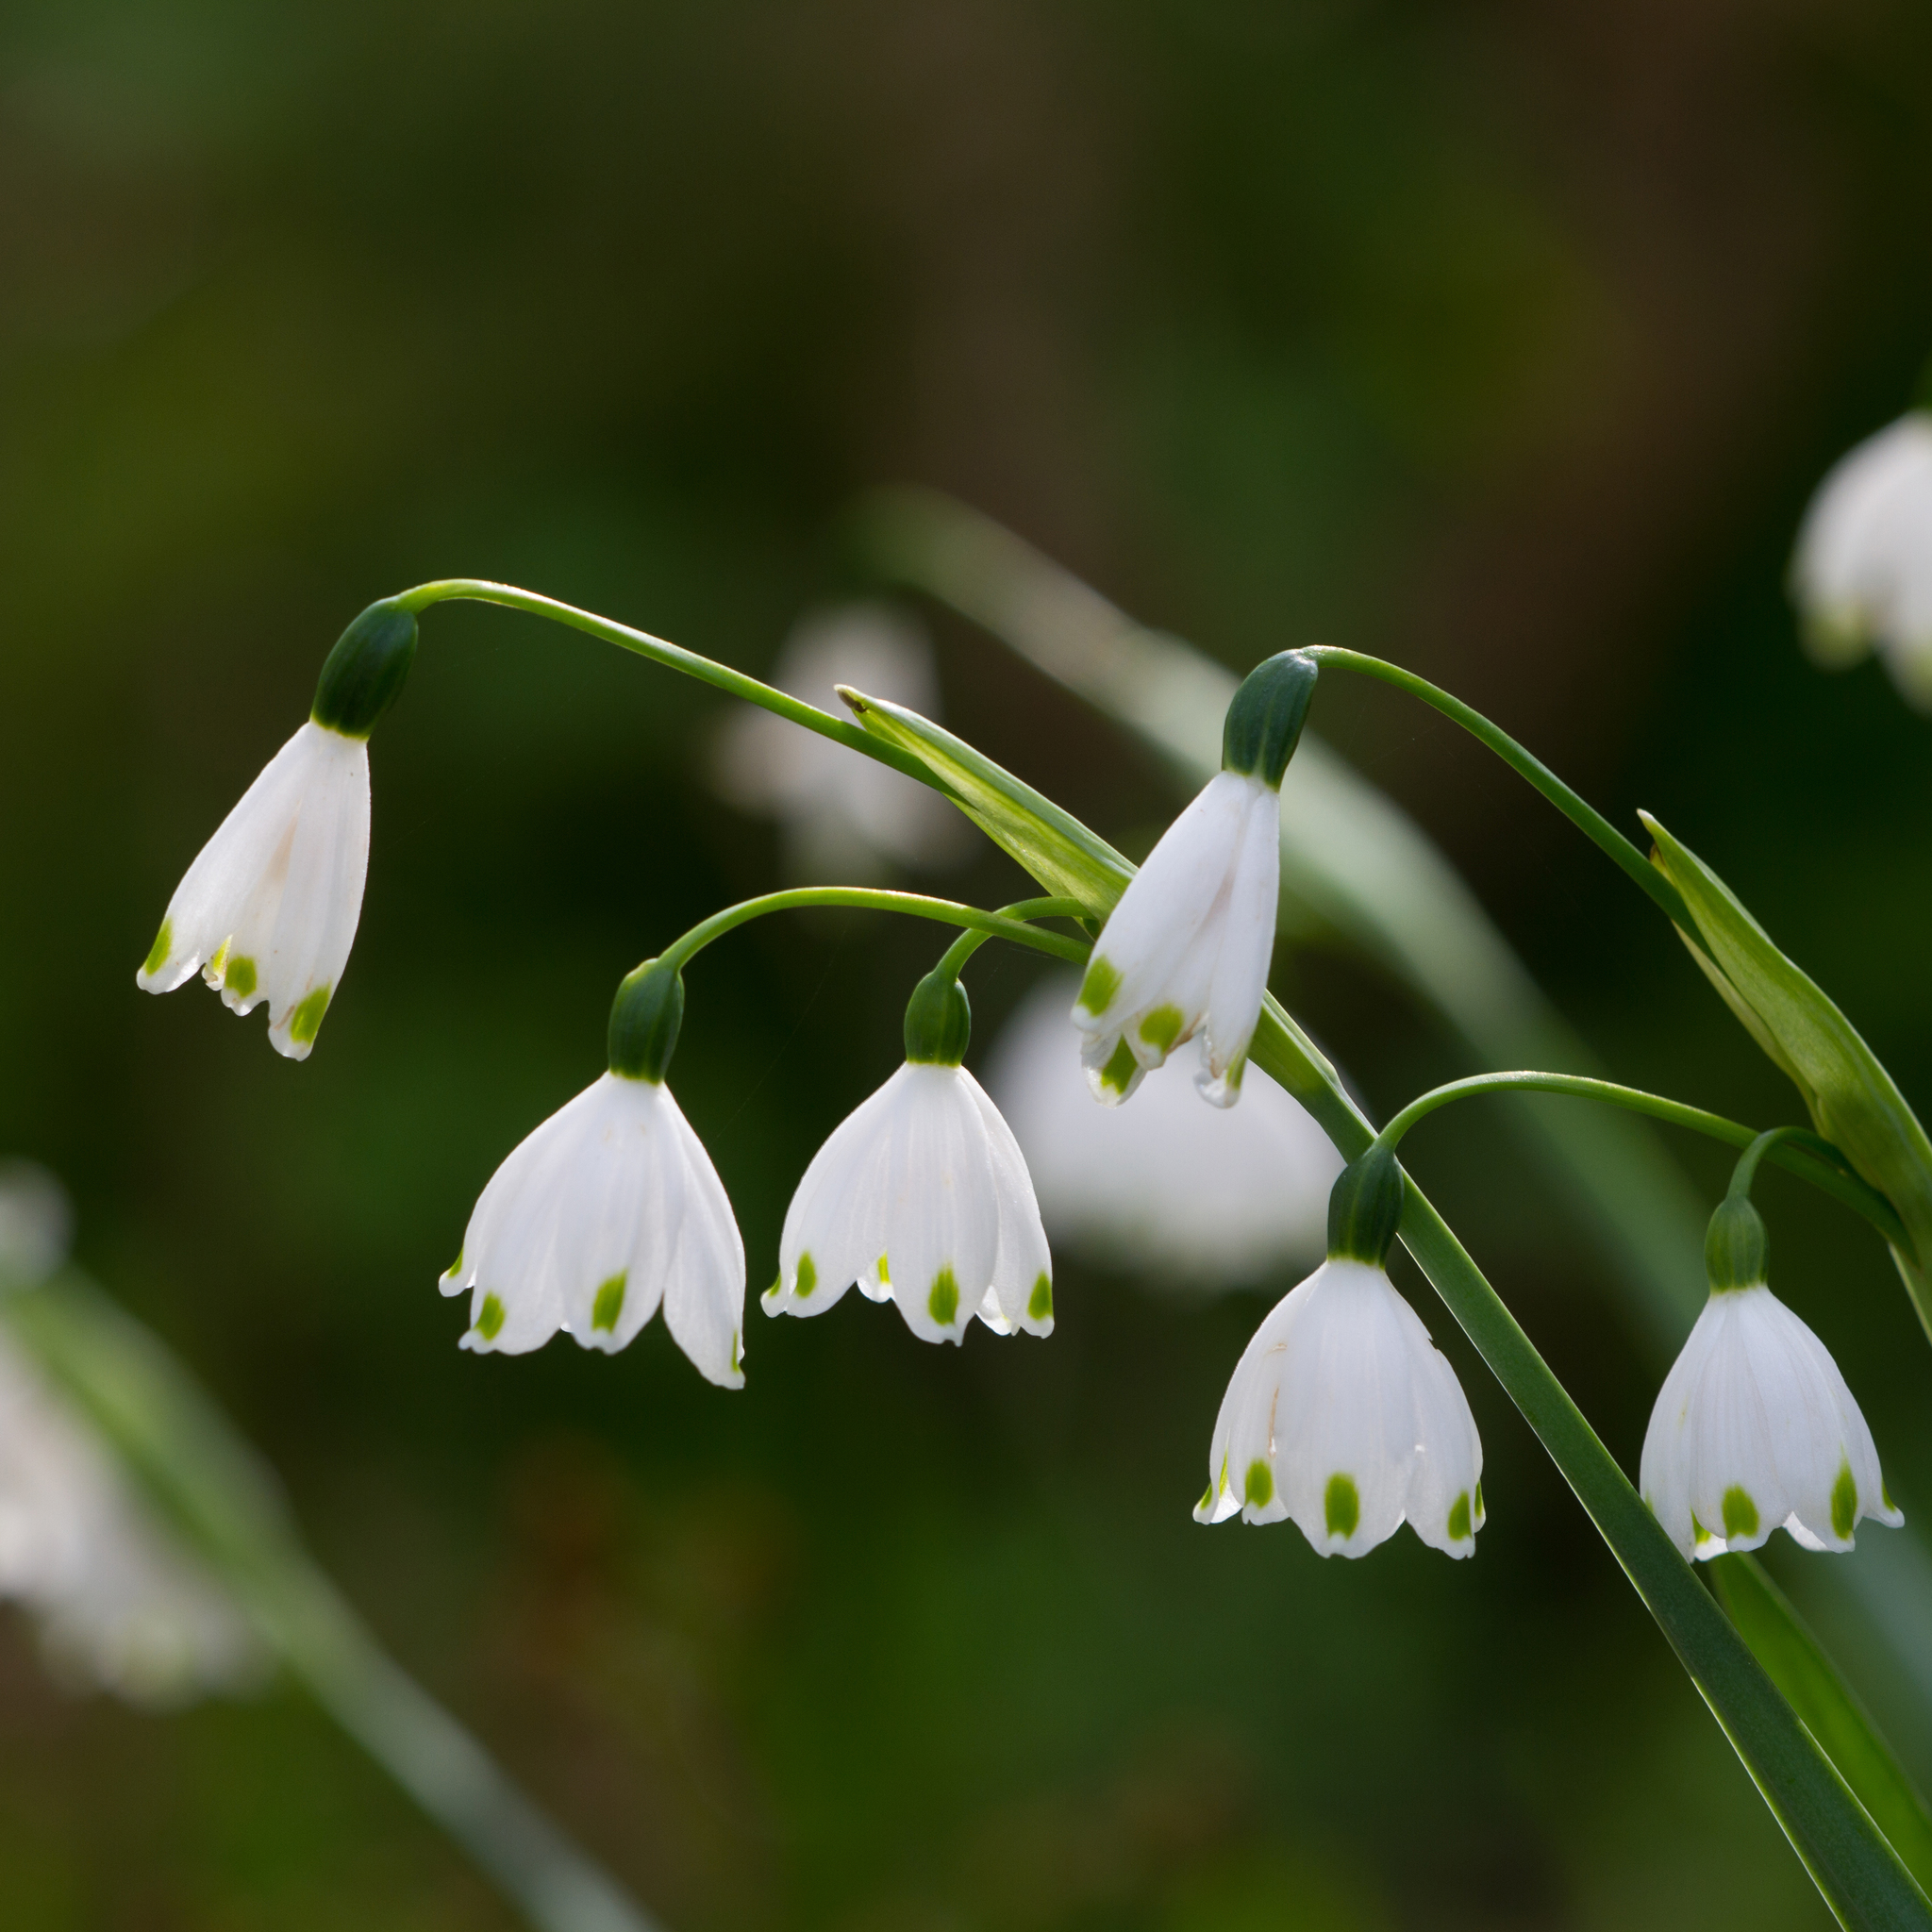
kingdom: Plantae
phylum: Tracheophyta
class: Liliopsida
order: Asparagales
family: Amaryllidaceae
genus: Leucojum
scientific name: Leucojum aestivum
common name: Summer snowflake
